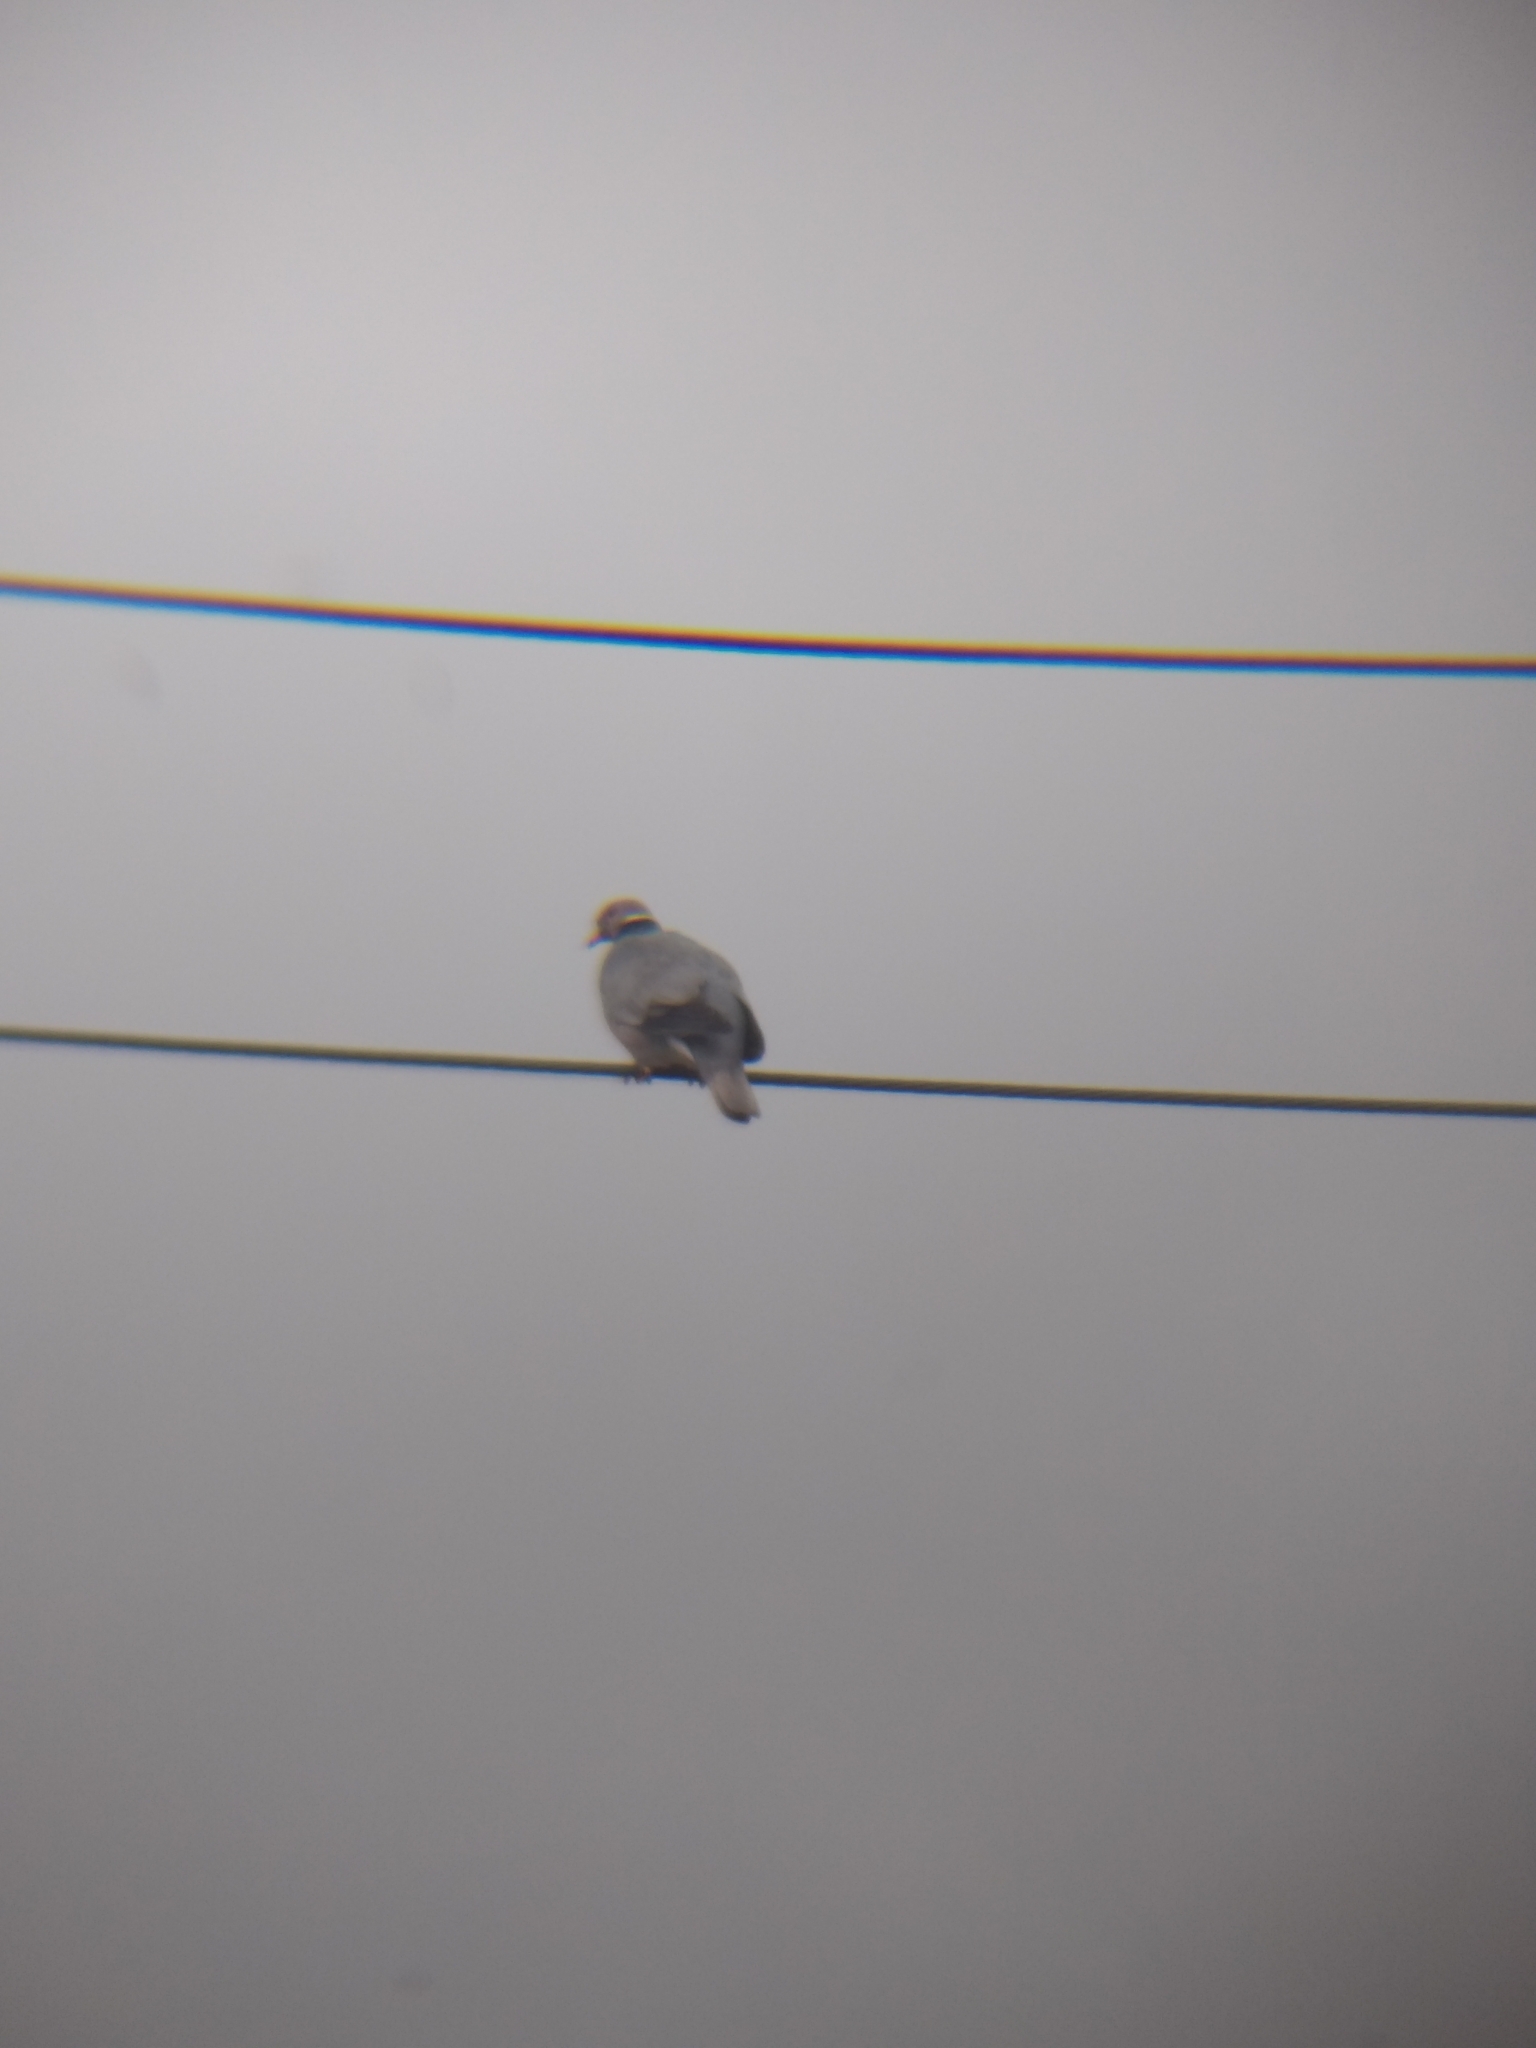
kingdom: Animalia
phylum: Chordata
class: Aves
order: Columbiformes
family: Columbidae
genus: Patagioenas
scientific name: Patagioenas fasciata
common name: Band-tailed pigeon
